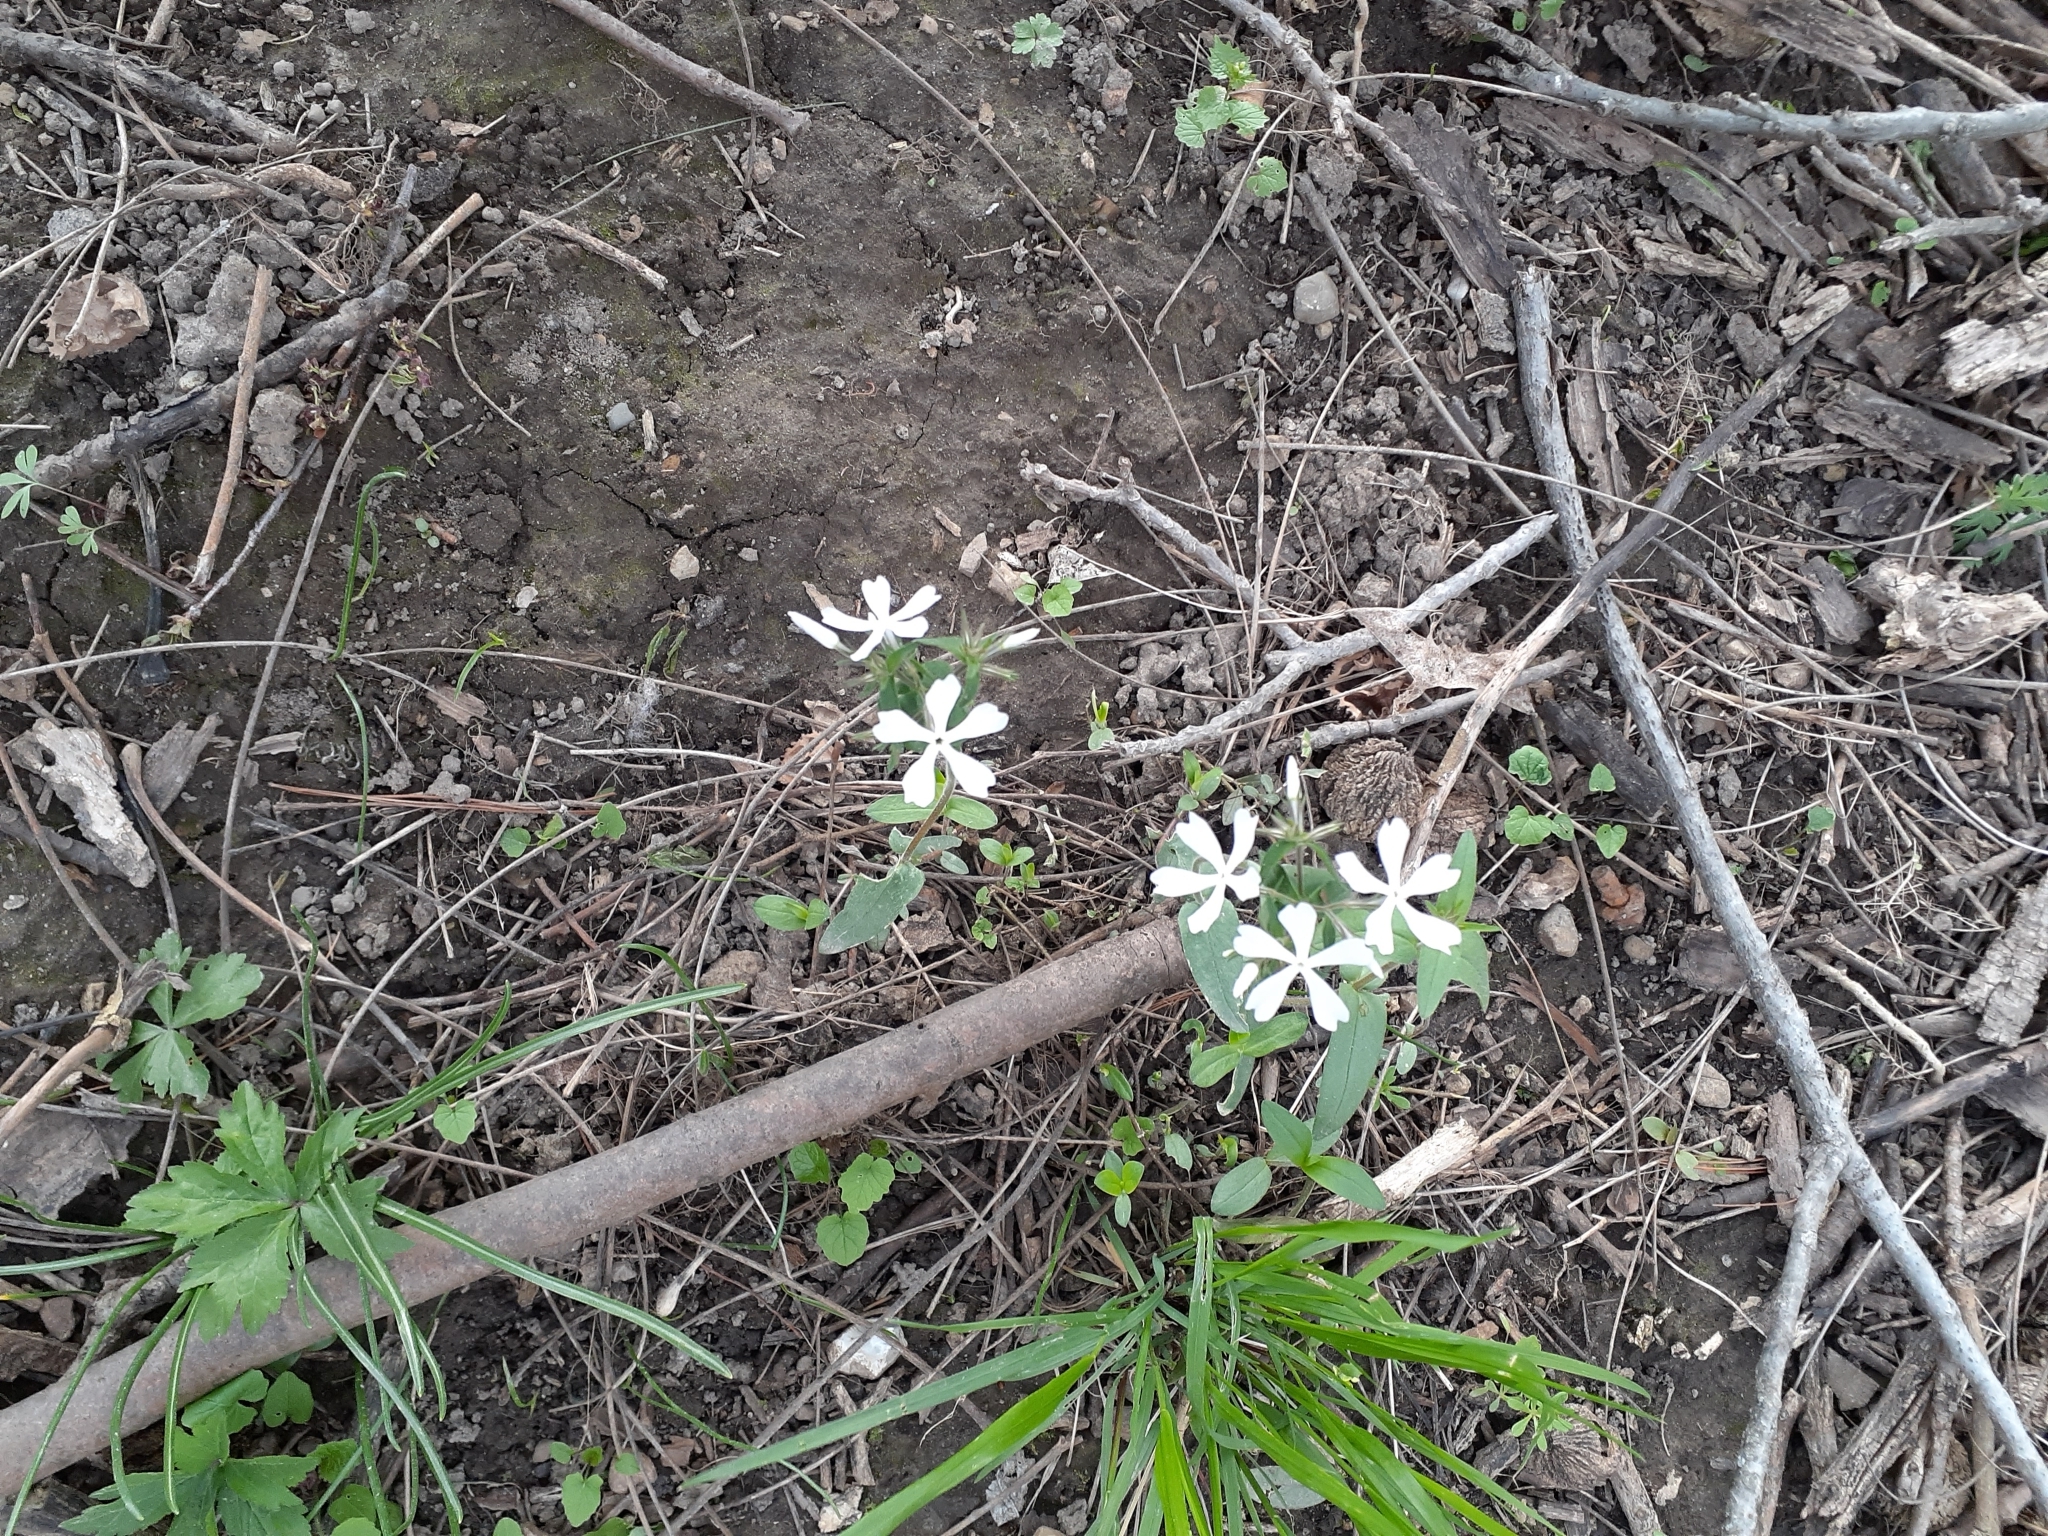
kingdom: Plantae
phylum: Tracheophyta
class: Magnoliopsida
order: Ericales
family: Polemoniaceae
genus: Phlox
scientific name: Phlox divaricata
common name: Blue phlox
